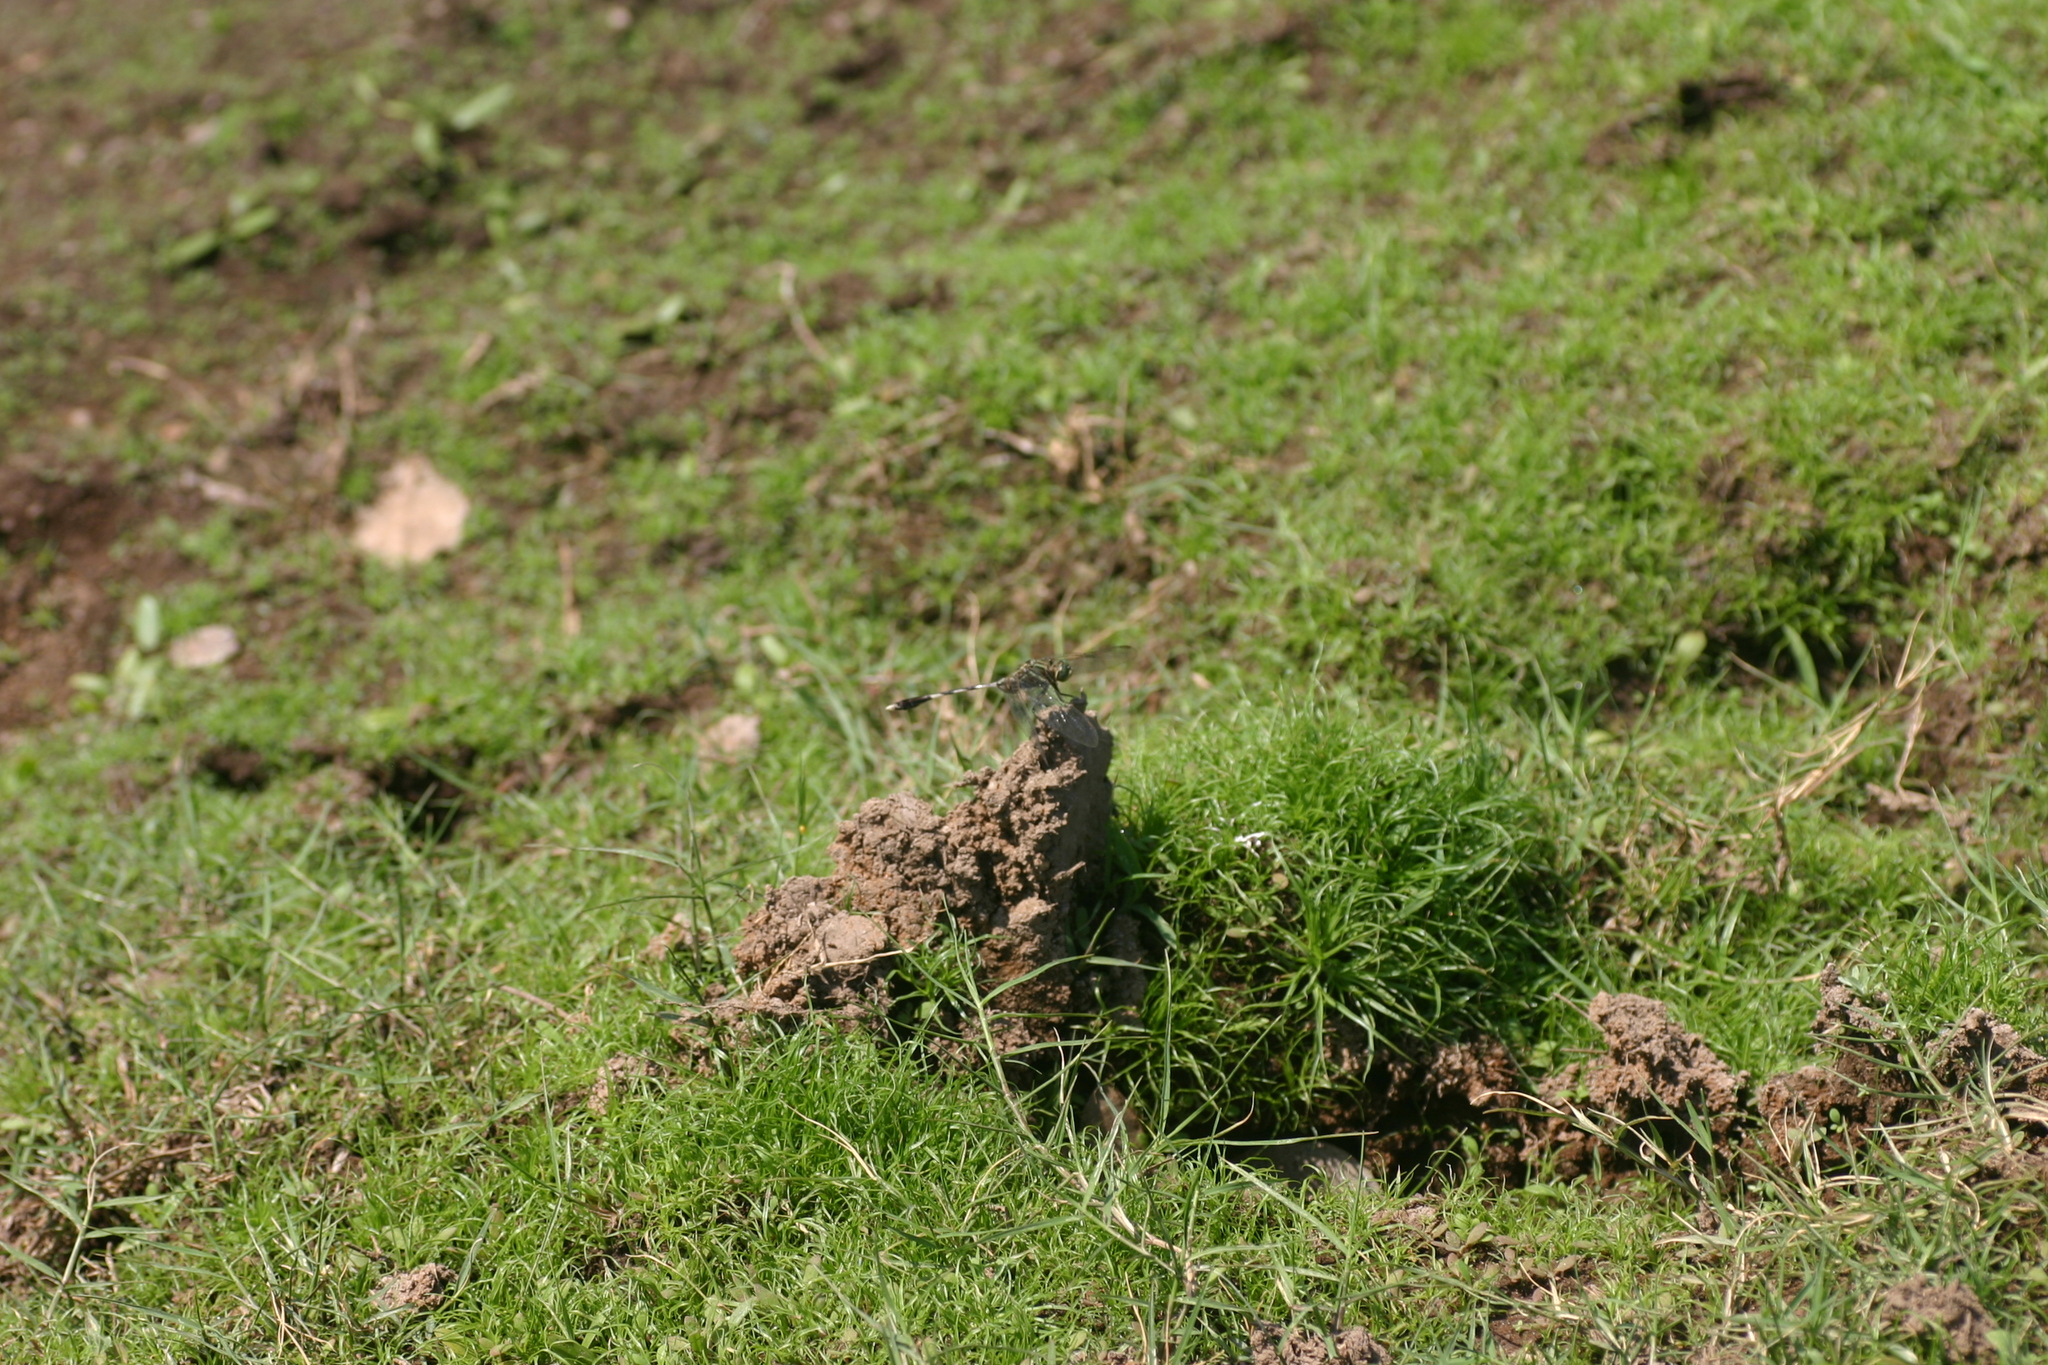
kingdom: Animalia
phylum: Arthropoda
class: Insecta
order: Odonata
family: Libellulidae
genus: Orthetrum
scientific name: Orthetrum sabina
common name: Slender skimmer
